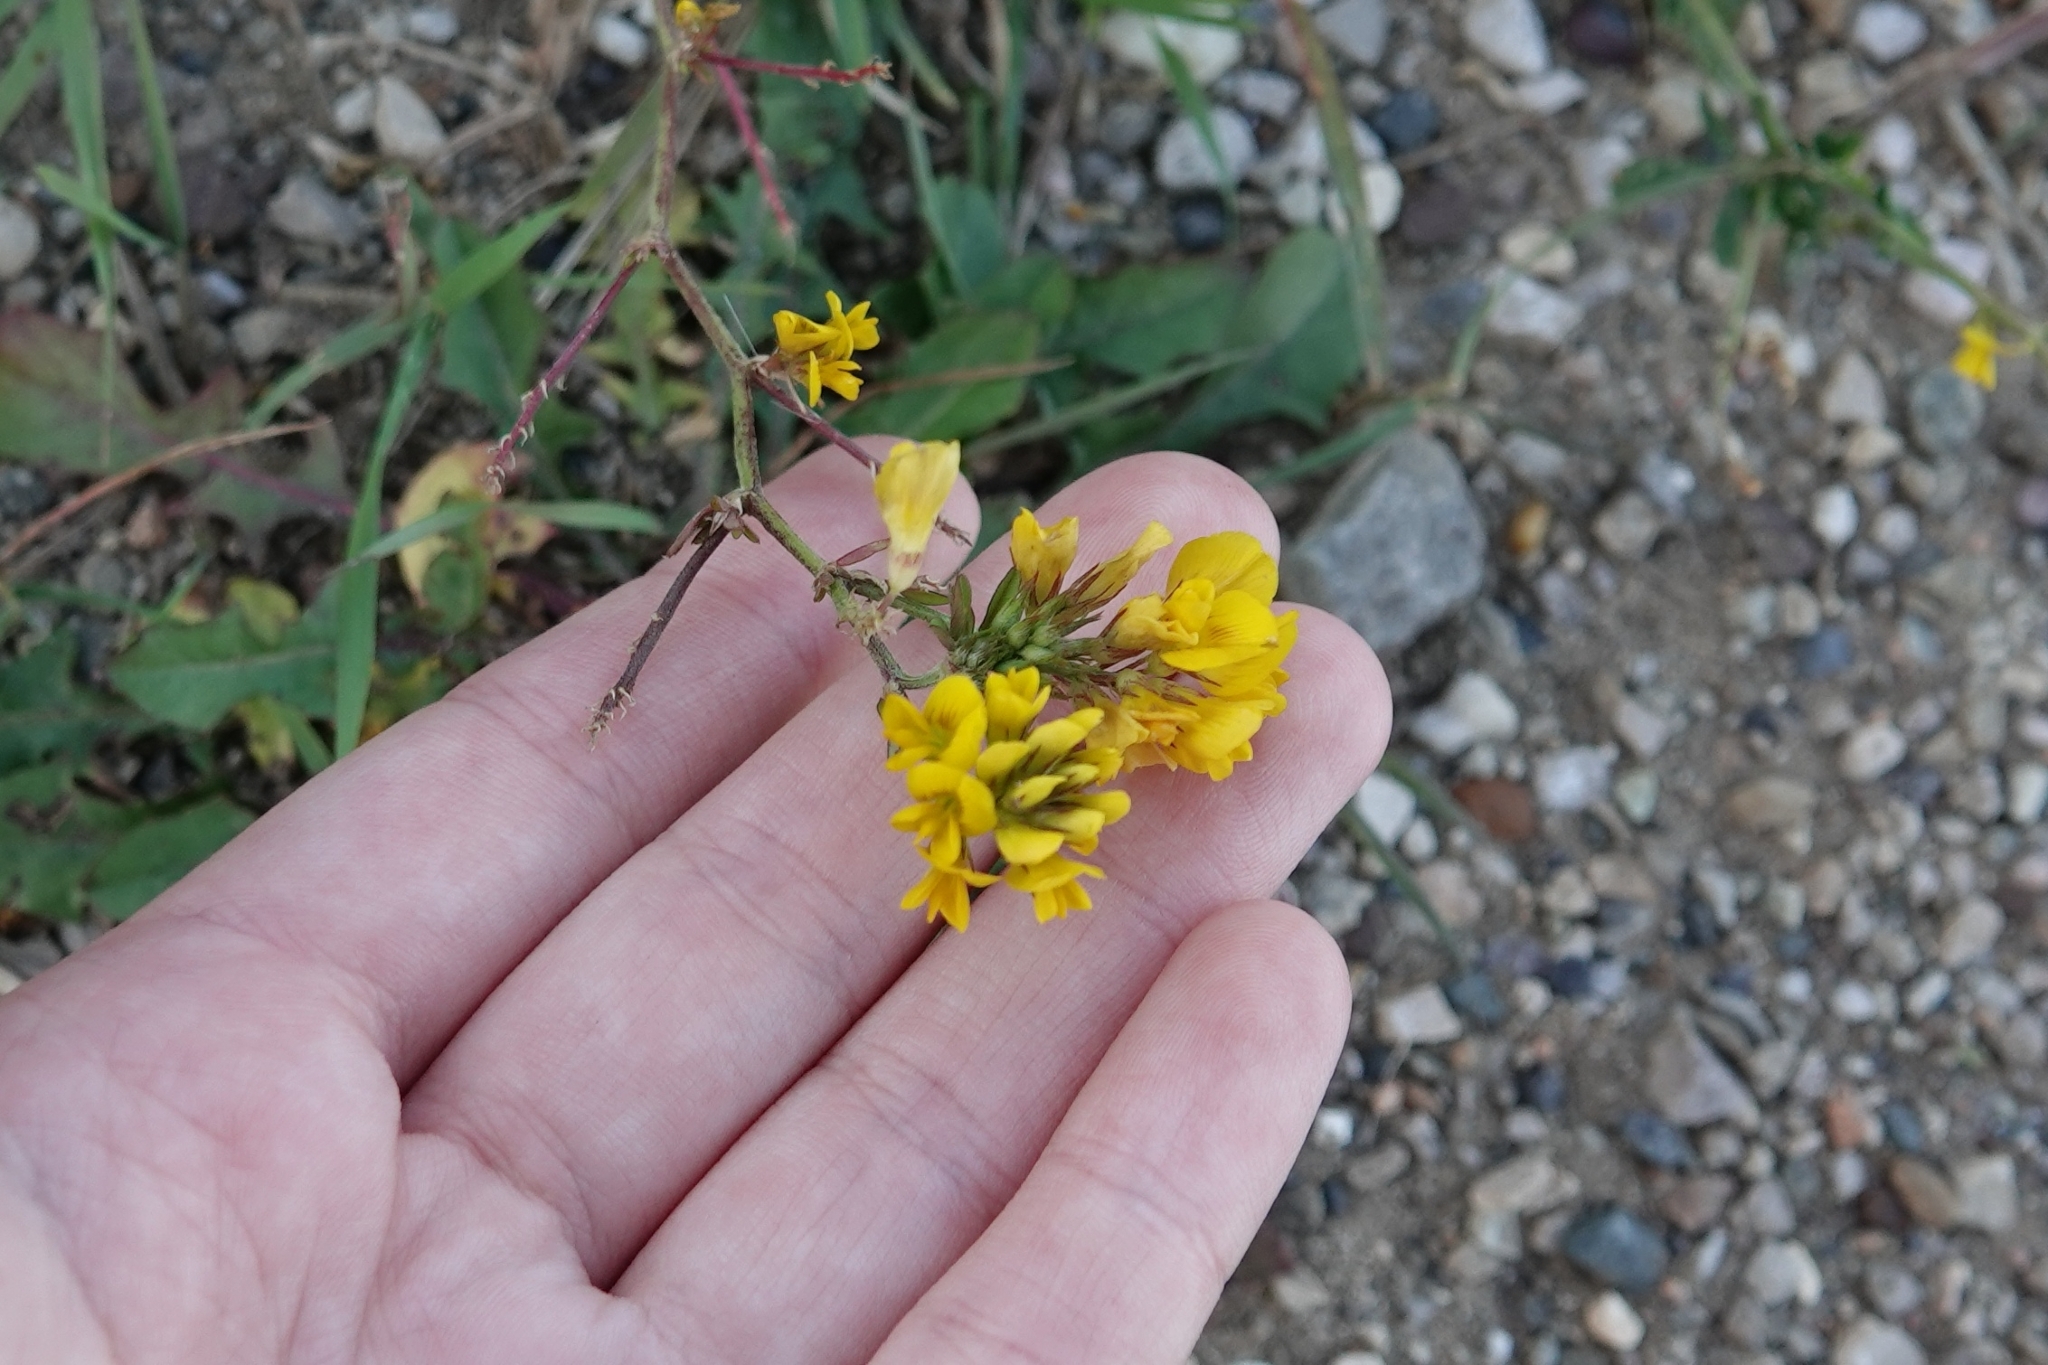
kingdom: Plantae
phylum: Tracheophyta
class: Magnoliopsida
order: Fabales
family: Fabaceae
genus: Medicago
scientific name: Medicago falcata
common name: Sickle medick
